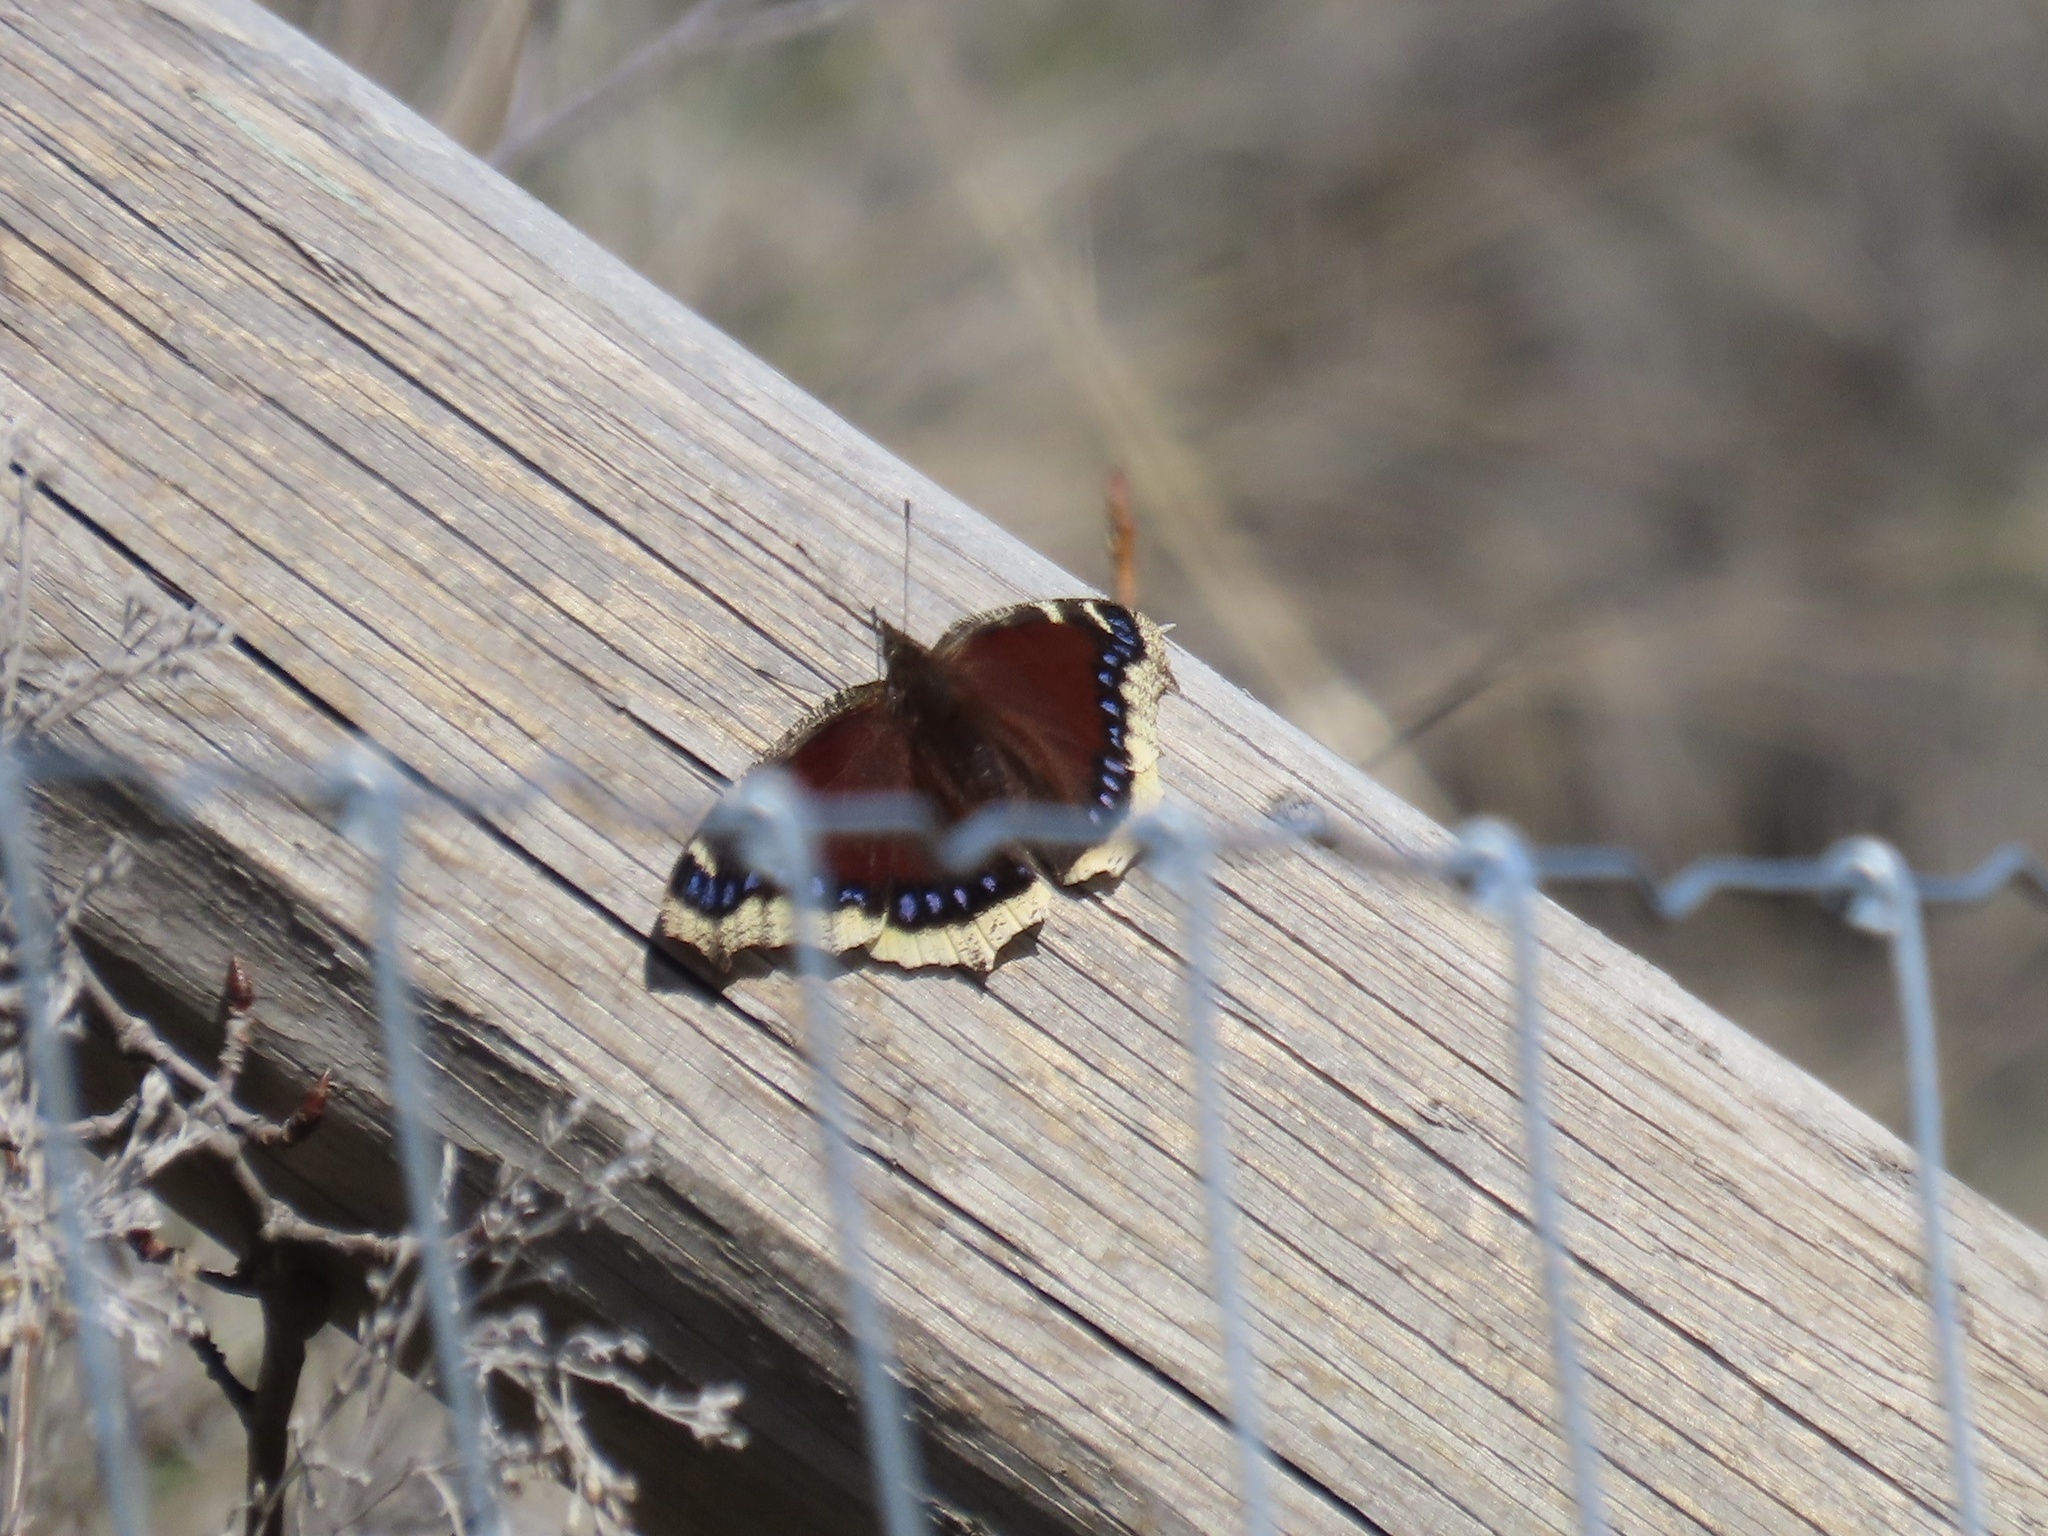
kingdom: Animalia
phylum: Arthropoda
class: Insecta
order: Lepidoptera
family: Nymphalidae
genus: Nymphalis
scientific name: Nymphalis antiopa
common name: Camberwell beauty
